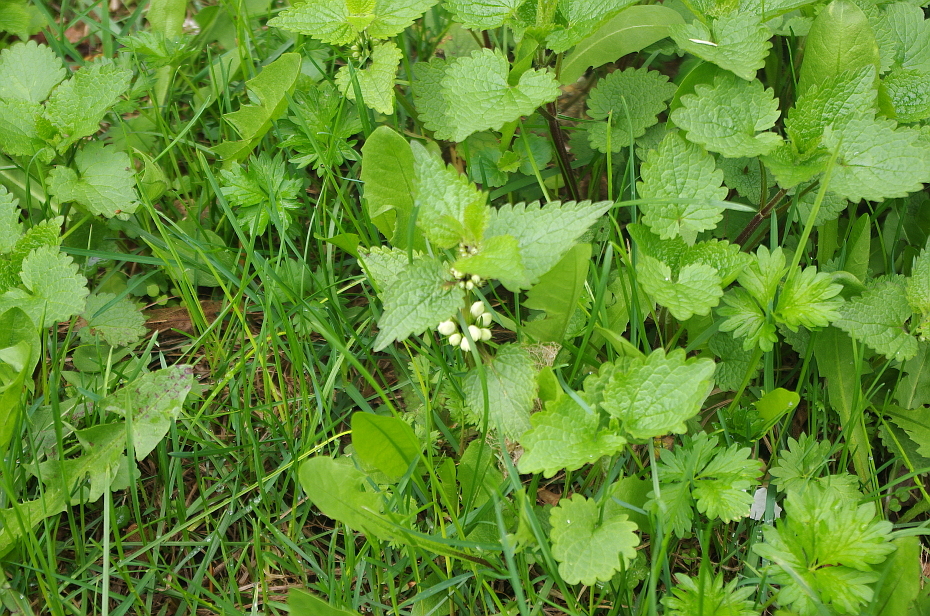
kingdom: Plantae
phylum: Tracheophyta
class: Magnoliopsida
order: Lamiales
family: Lamiaceae
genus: Lamium
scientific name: Lamium album
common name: White dead-nettle
